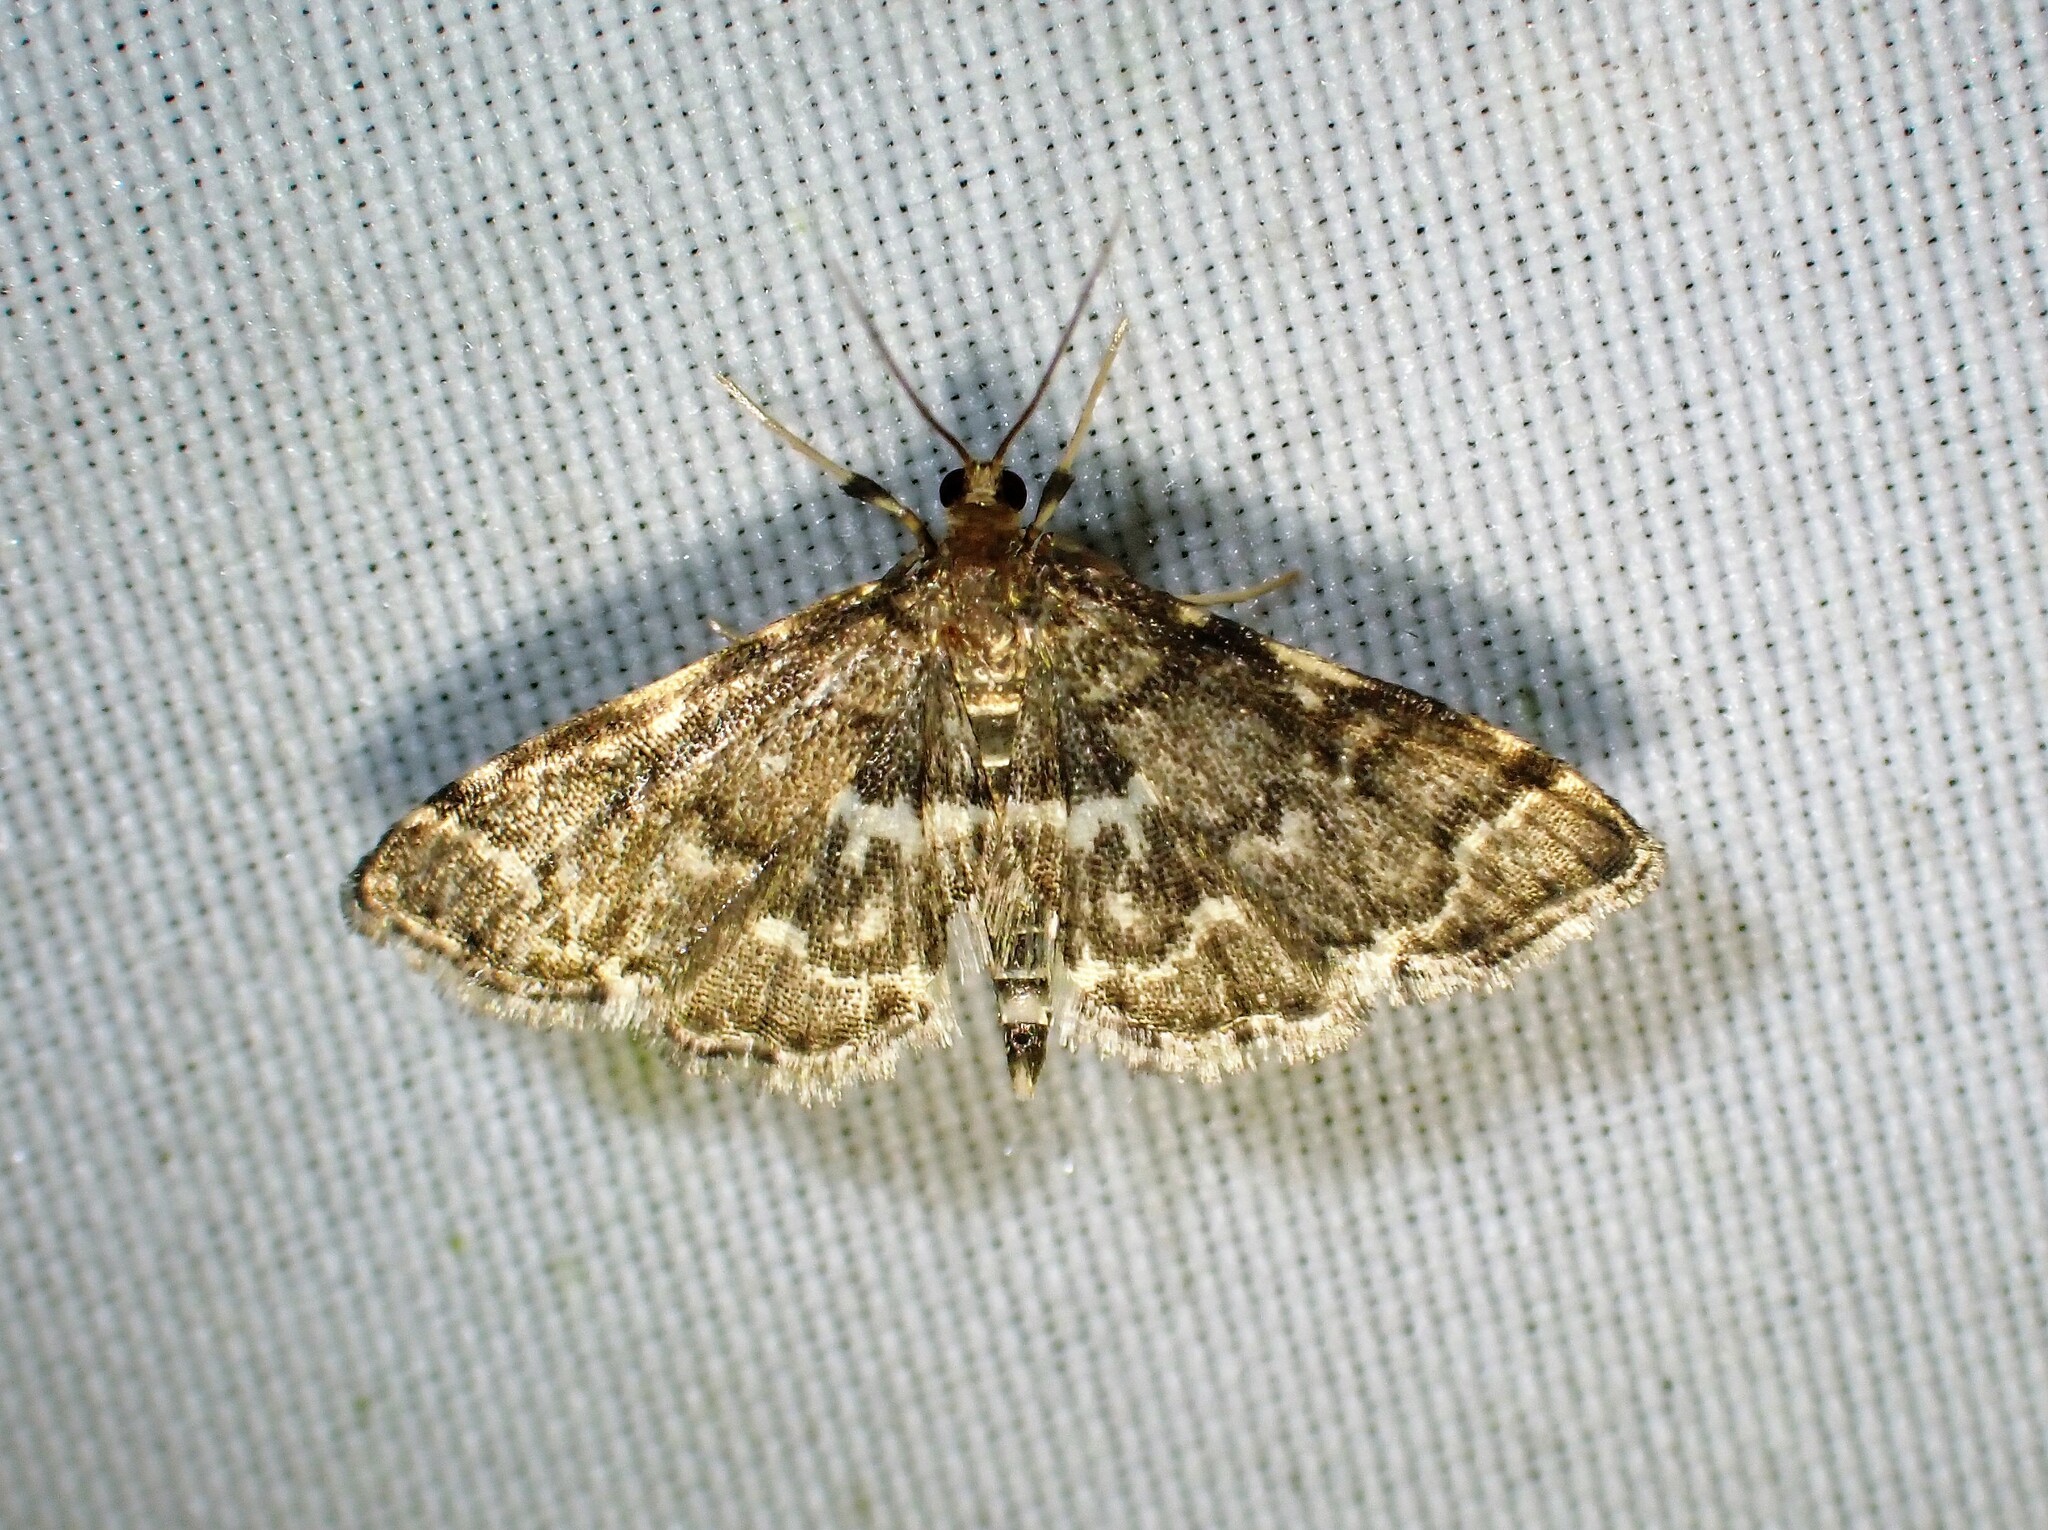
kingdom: Animalia
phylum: Arthropoda
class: Insecta
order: Lepidoptera
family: Crambidae
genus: Anageshna
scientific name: Anageshna primordialis
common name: Yellow-spotted webworm moth
